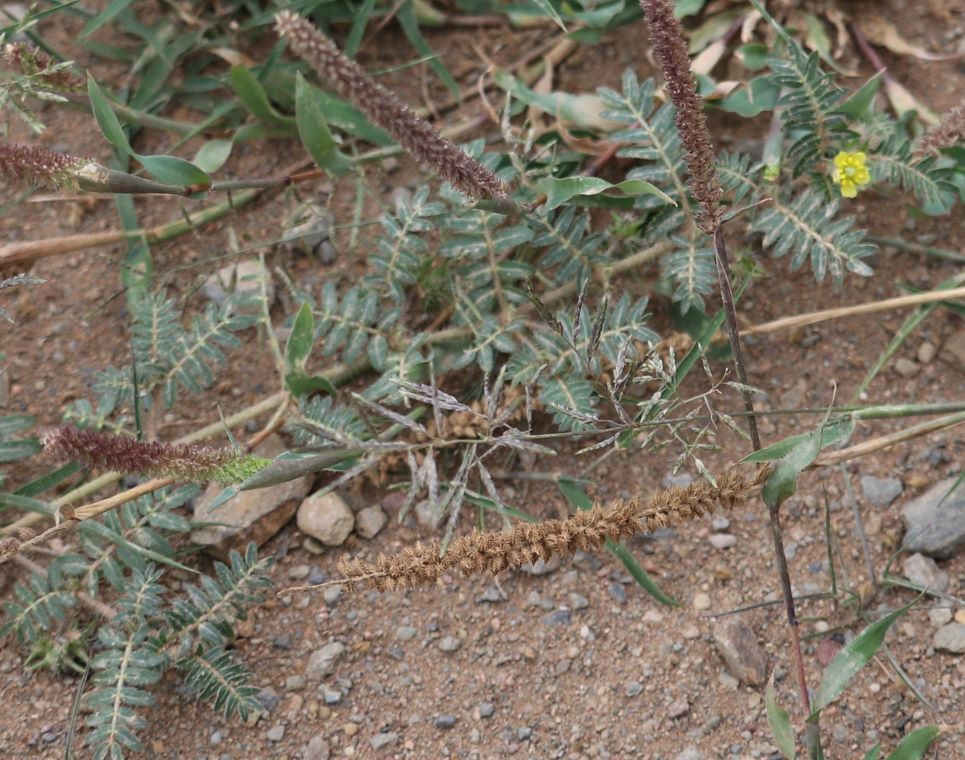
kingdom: Plantae
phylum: Tracheophyta
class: Magnoliopsida
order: Zygophyllales
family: Zygophyllaceae
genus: Tribulus
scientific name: Tribulus terrestris
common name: Puncturevine
